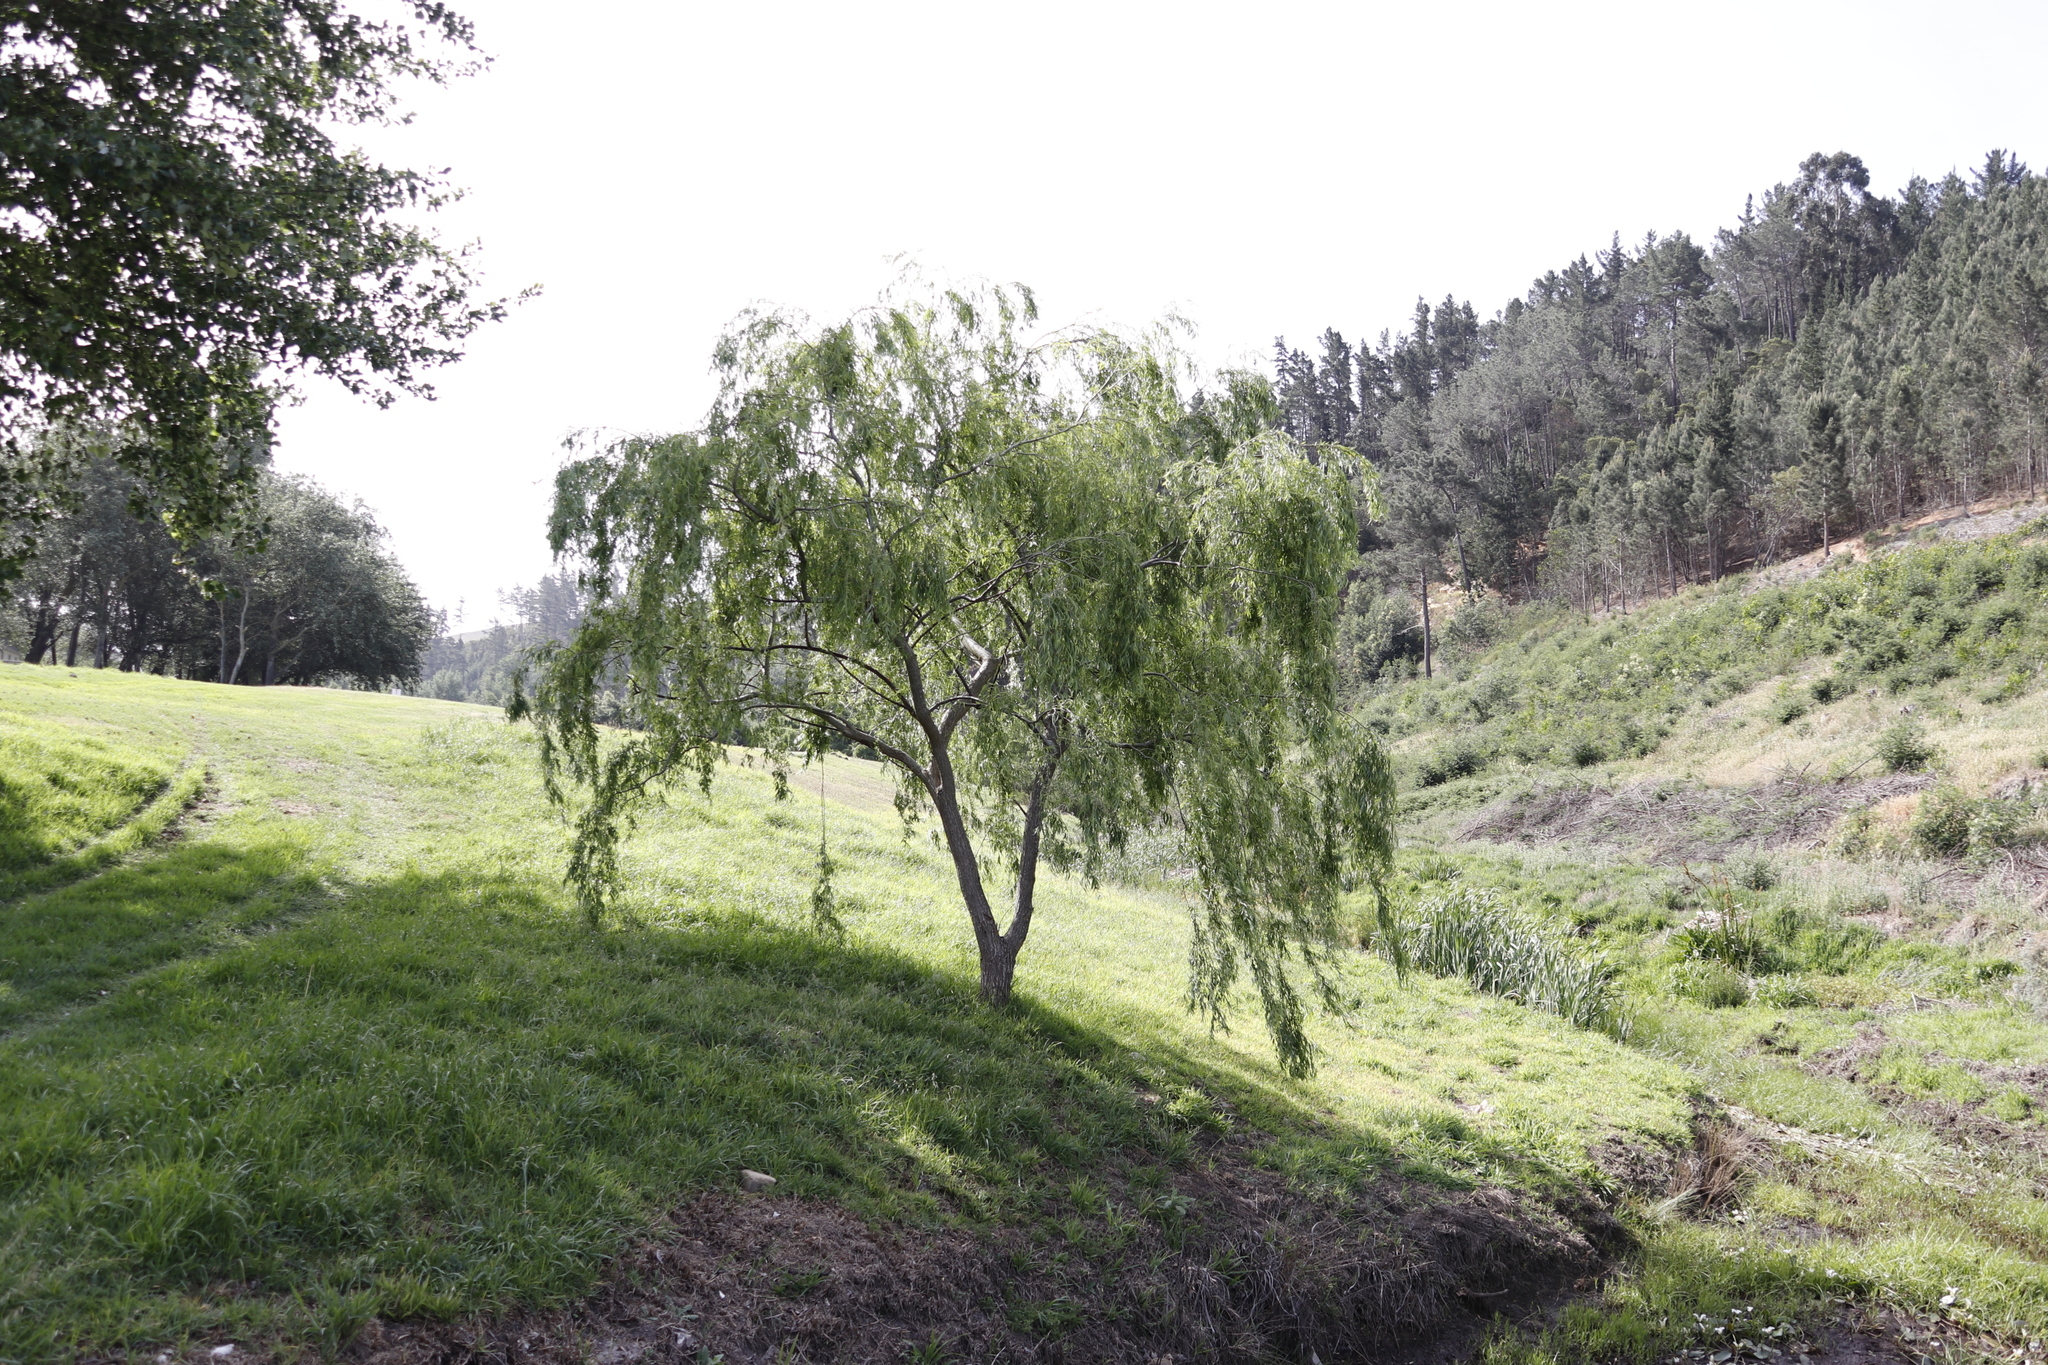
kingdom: Plantae
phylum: Tracheophyta
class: Magnoliopsida
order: Malpighiales
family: Salicaceae
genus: Salix
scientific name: Salix babylonica
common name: Weeping willow
